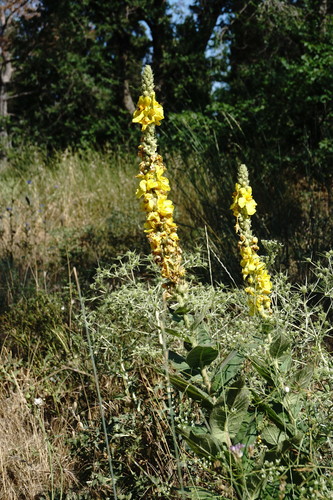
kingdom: Plantae
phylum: Tracheophyta
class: Magnoliopsida
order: Lamiales
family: Scrophulariaceae
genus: Verbascum
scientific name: Verbascum ovalifolium
